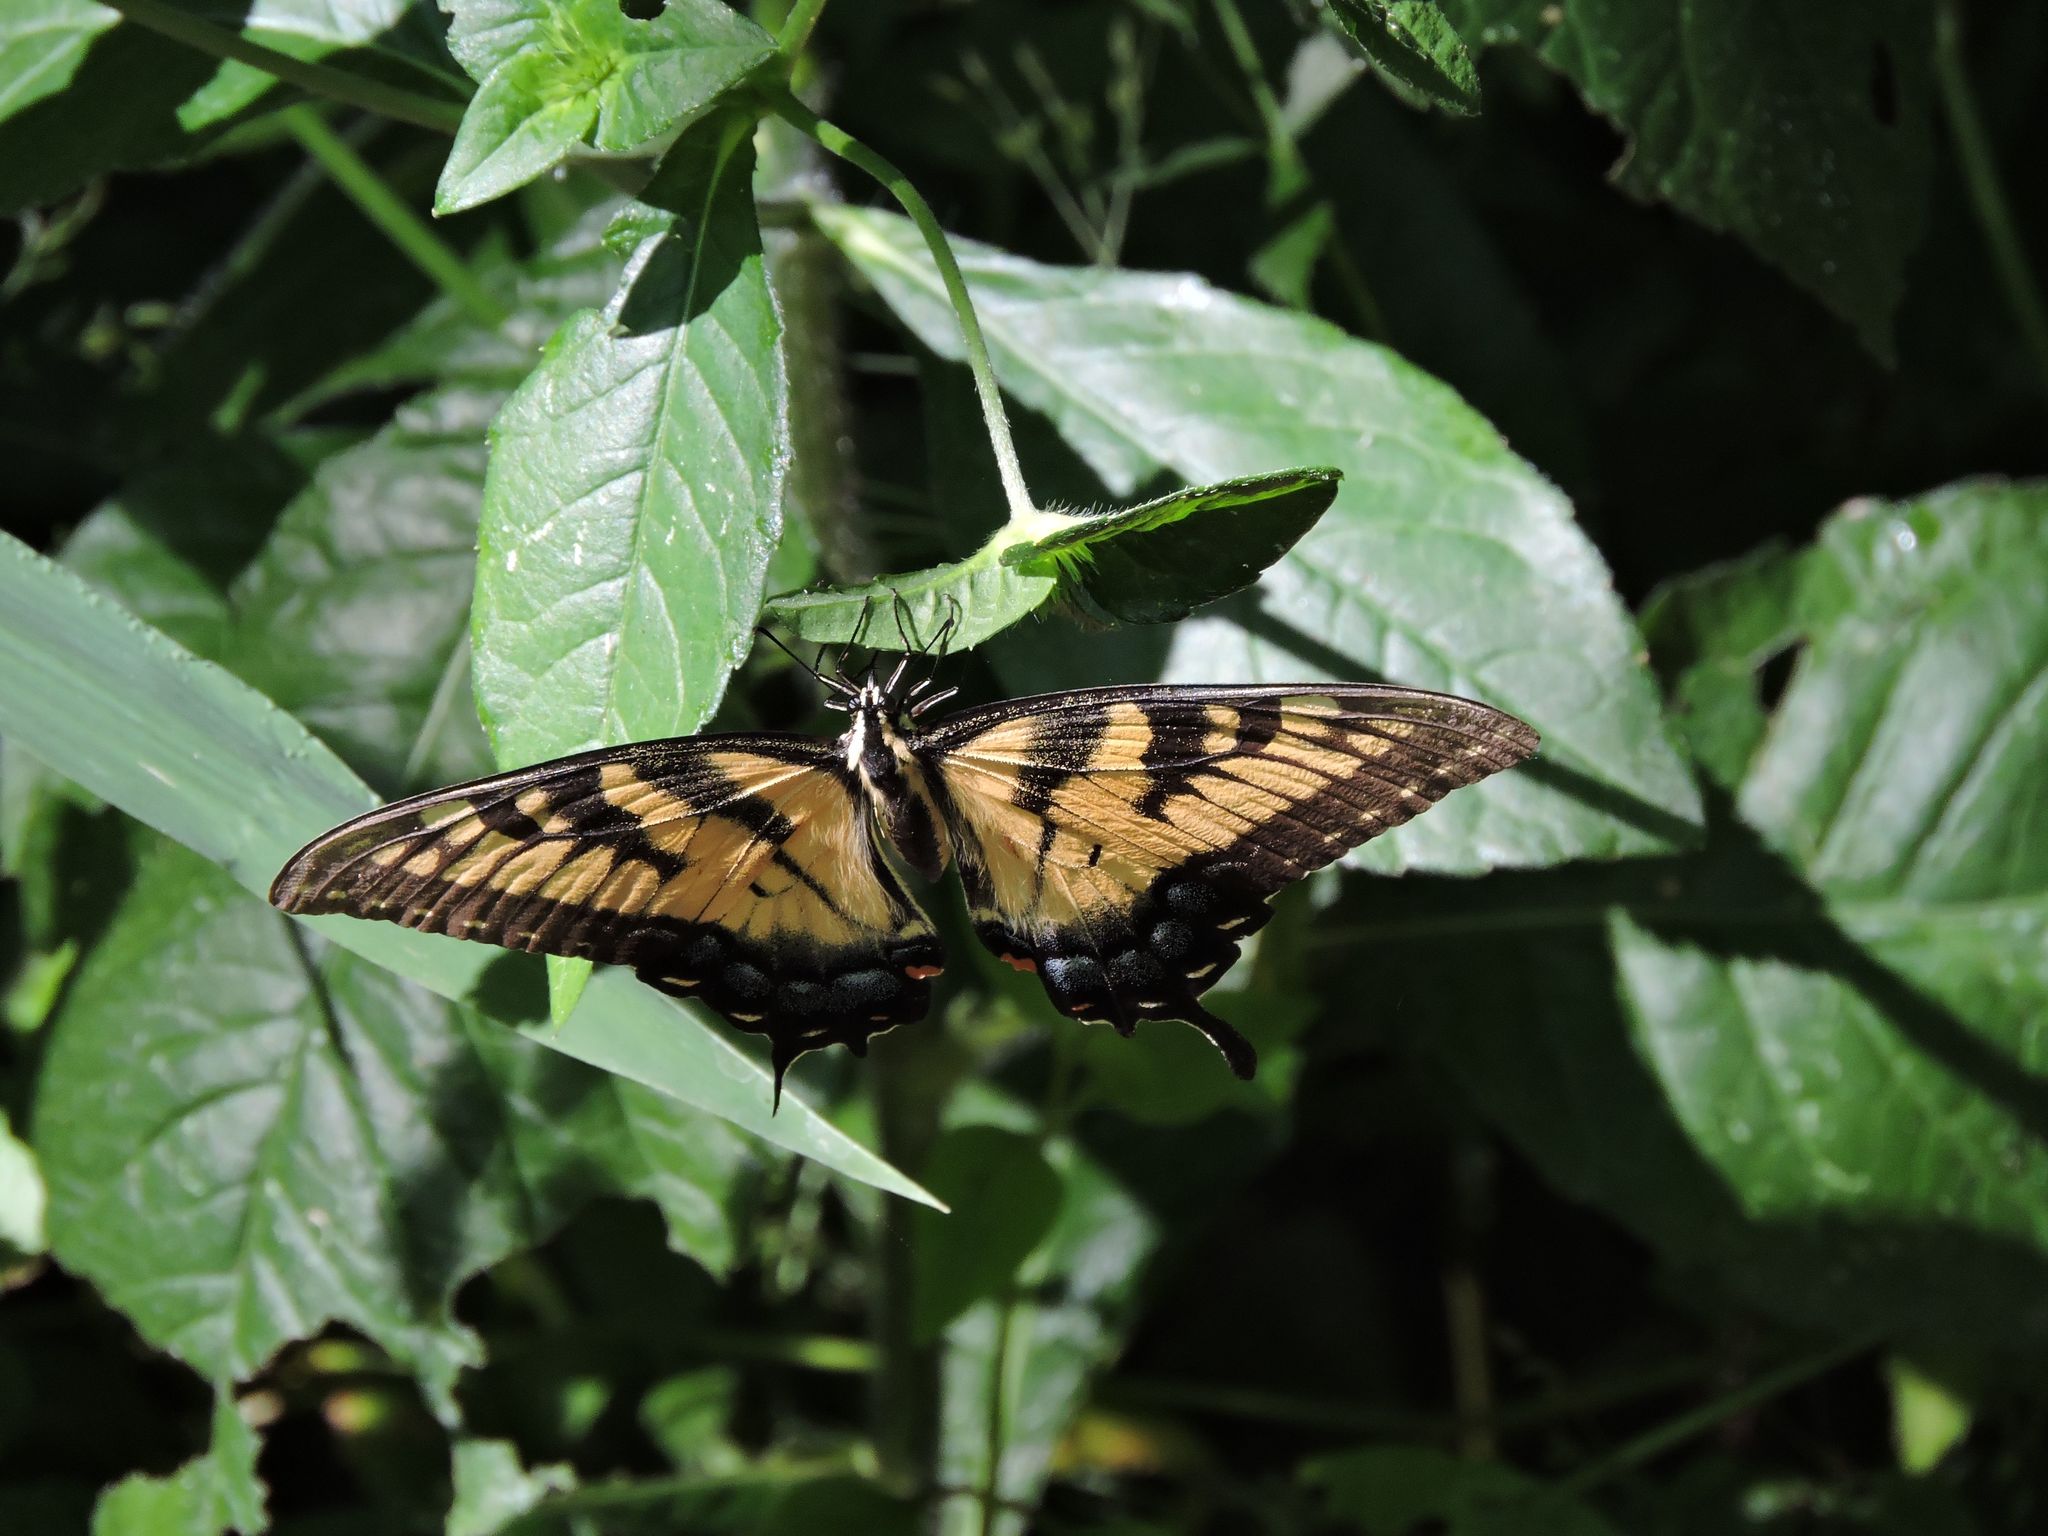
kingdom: Animalia
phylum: Arthropoda
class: Insecta
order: Lepidoptera
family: Papilionidae
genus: Papilio
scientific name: Papilio glaucus
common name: Tiger swallowtail
